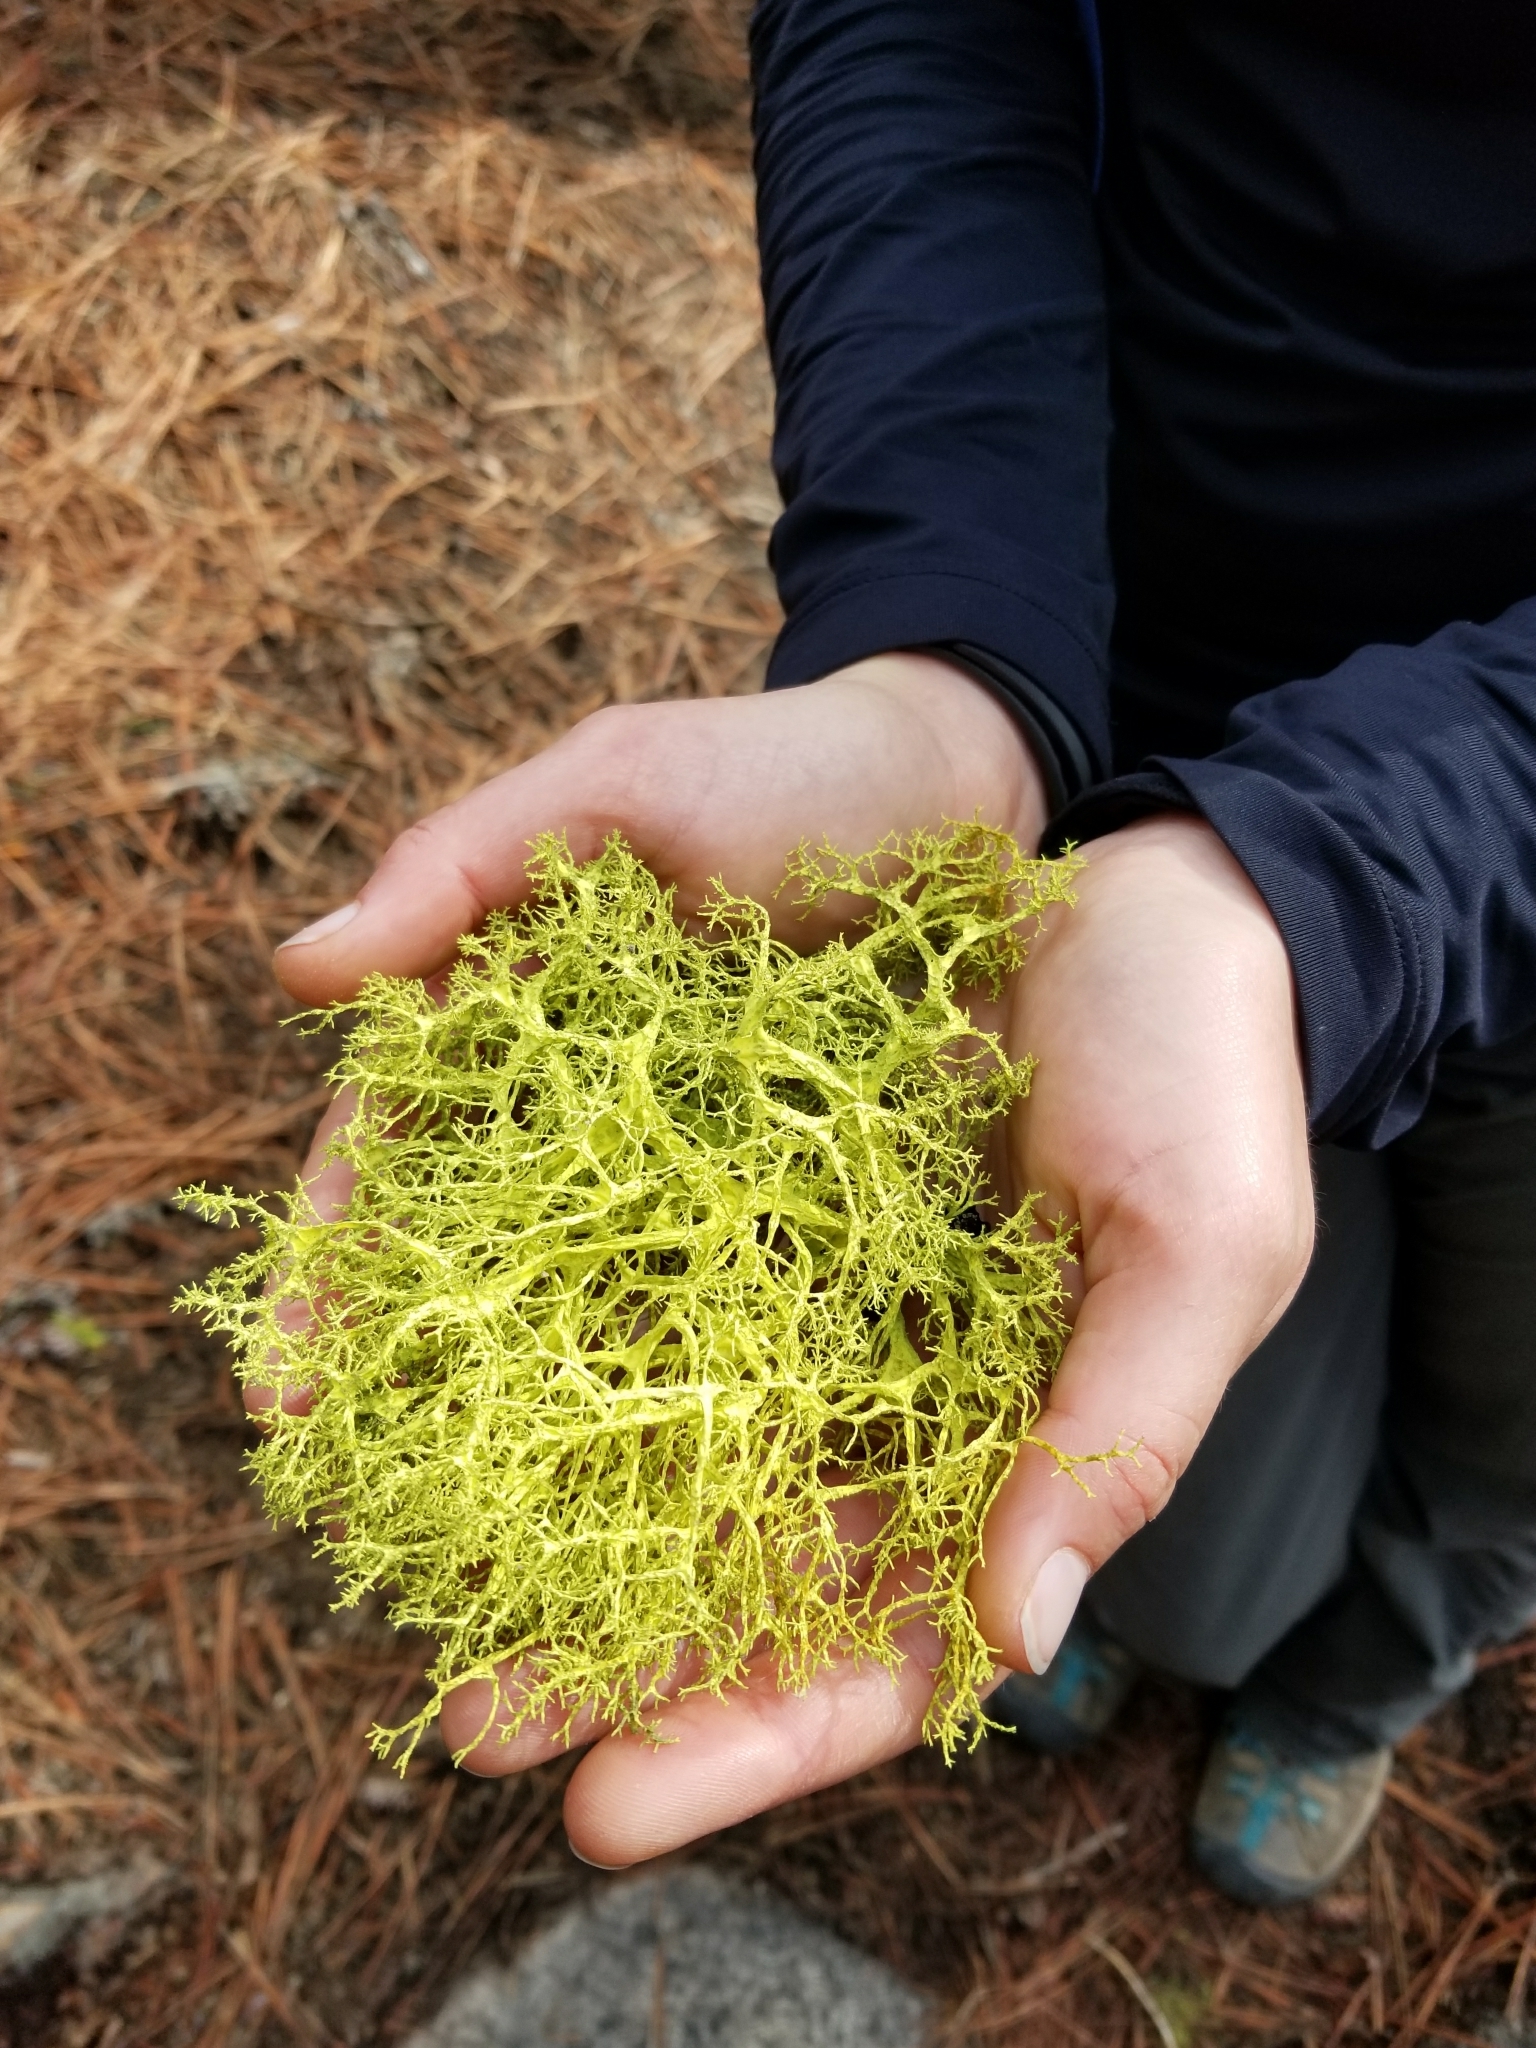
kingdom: Fungi
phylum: Ascomycota
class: Lecanoromycetes
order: Lecanorales
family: Parmeliaceae
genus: Letharia
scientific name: Letharia vulpina
